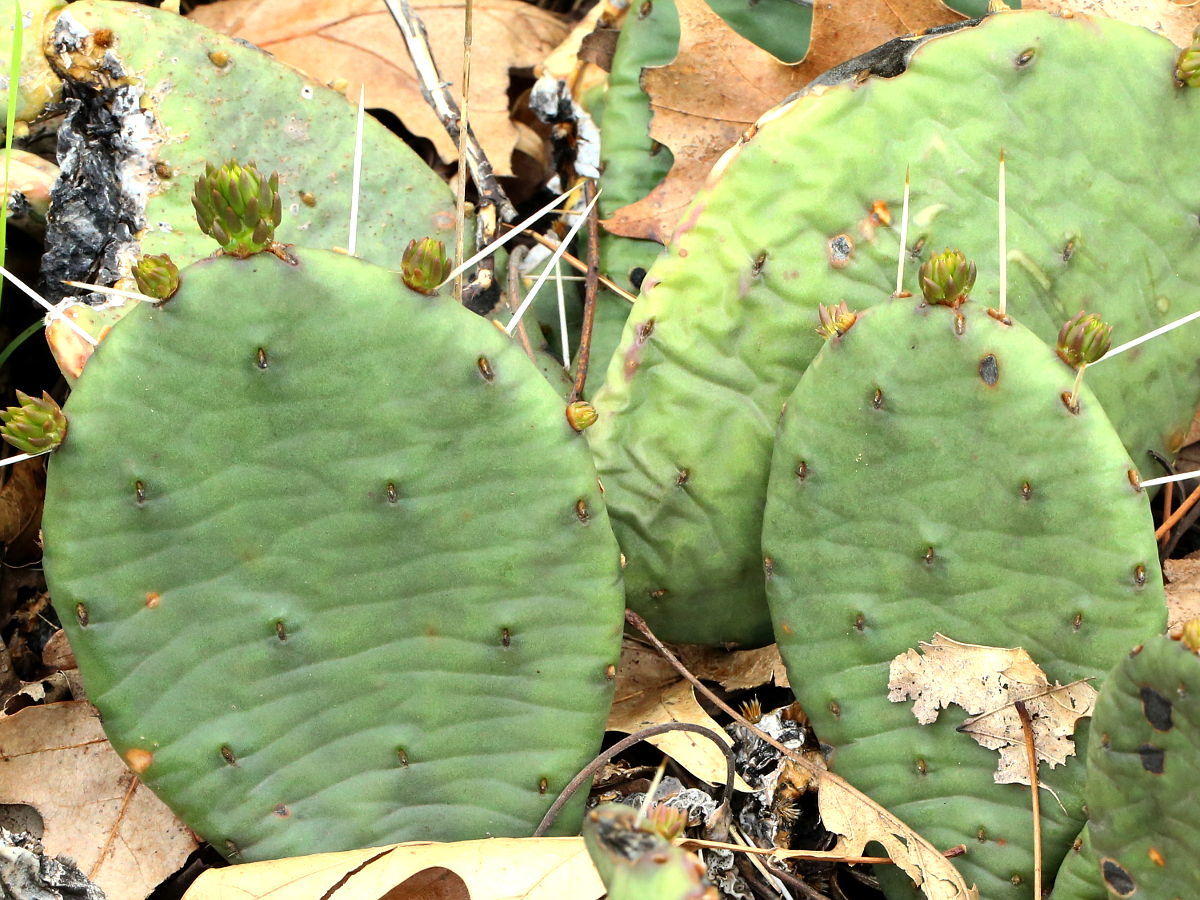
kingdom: Plantae
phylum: Tracheophyta
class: Magnoliopsida
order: Caryophyllales
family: Cactaceae
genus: Opuntia
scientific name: Opuntia macrorhiza
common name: Grassland pricklypear
